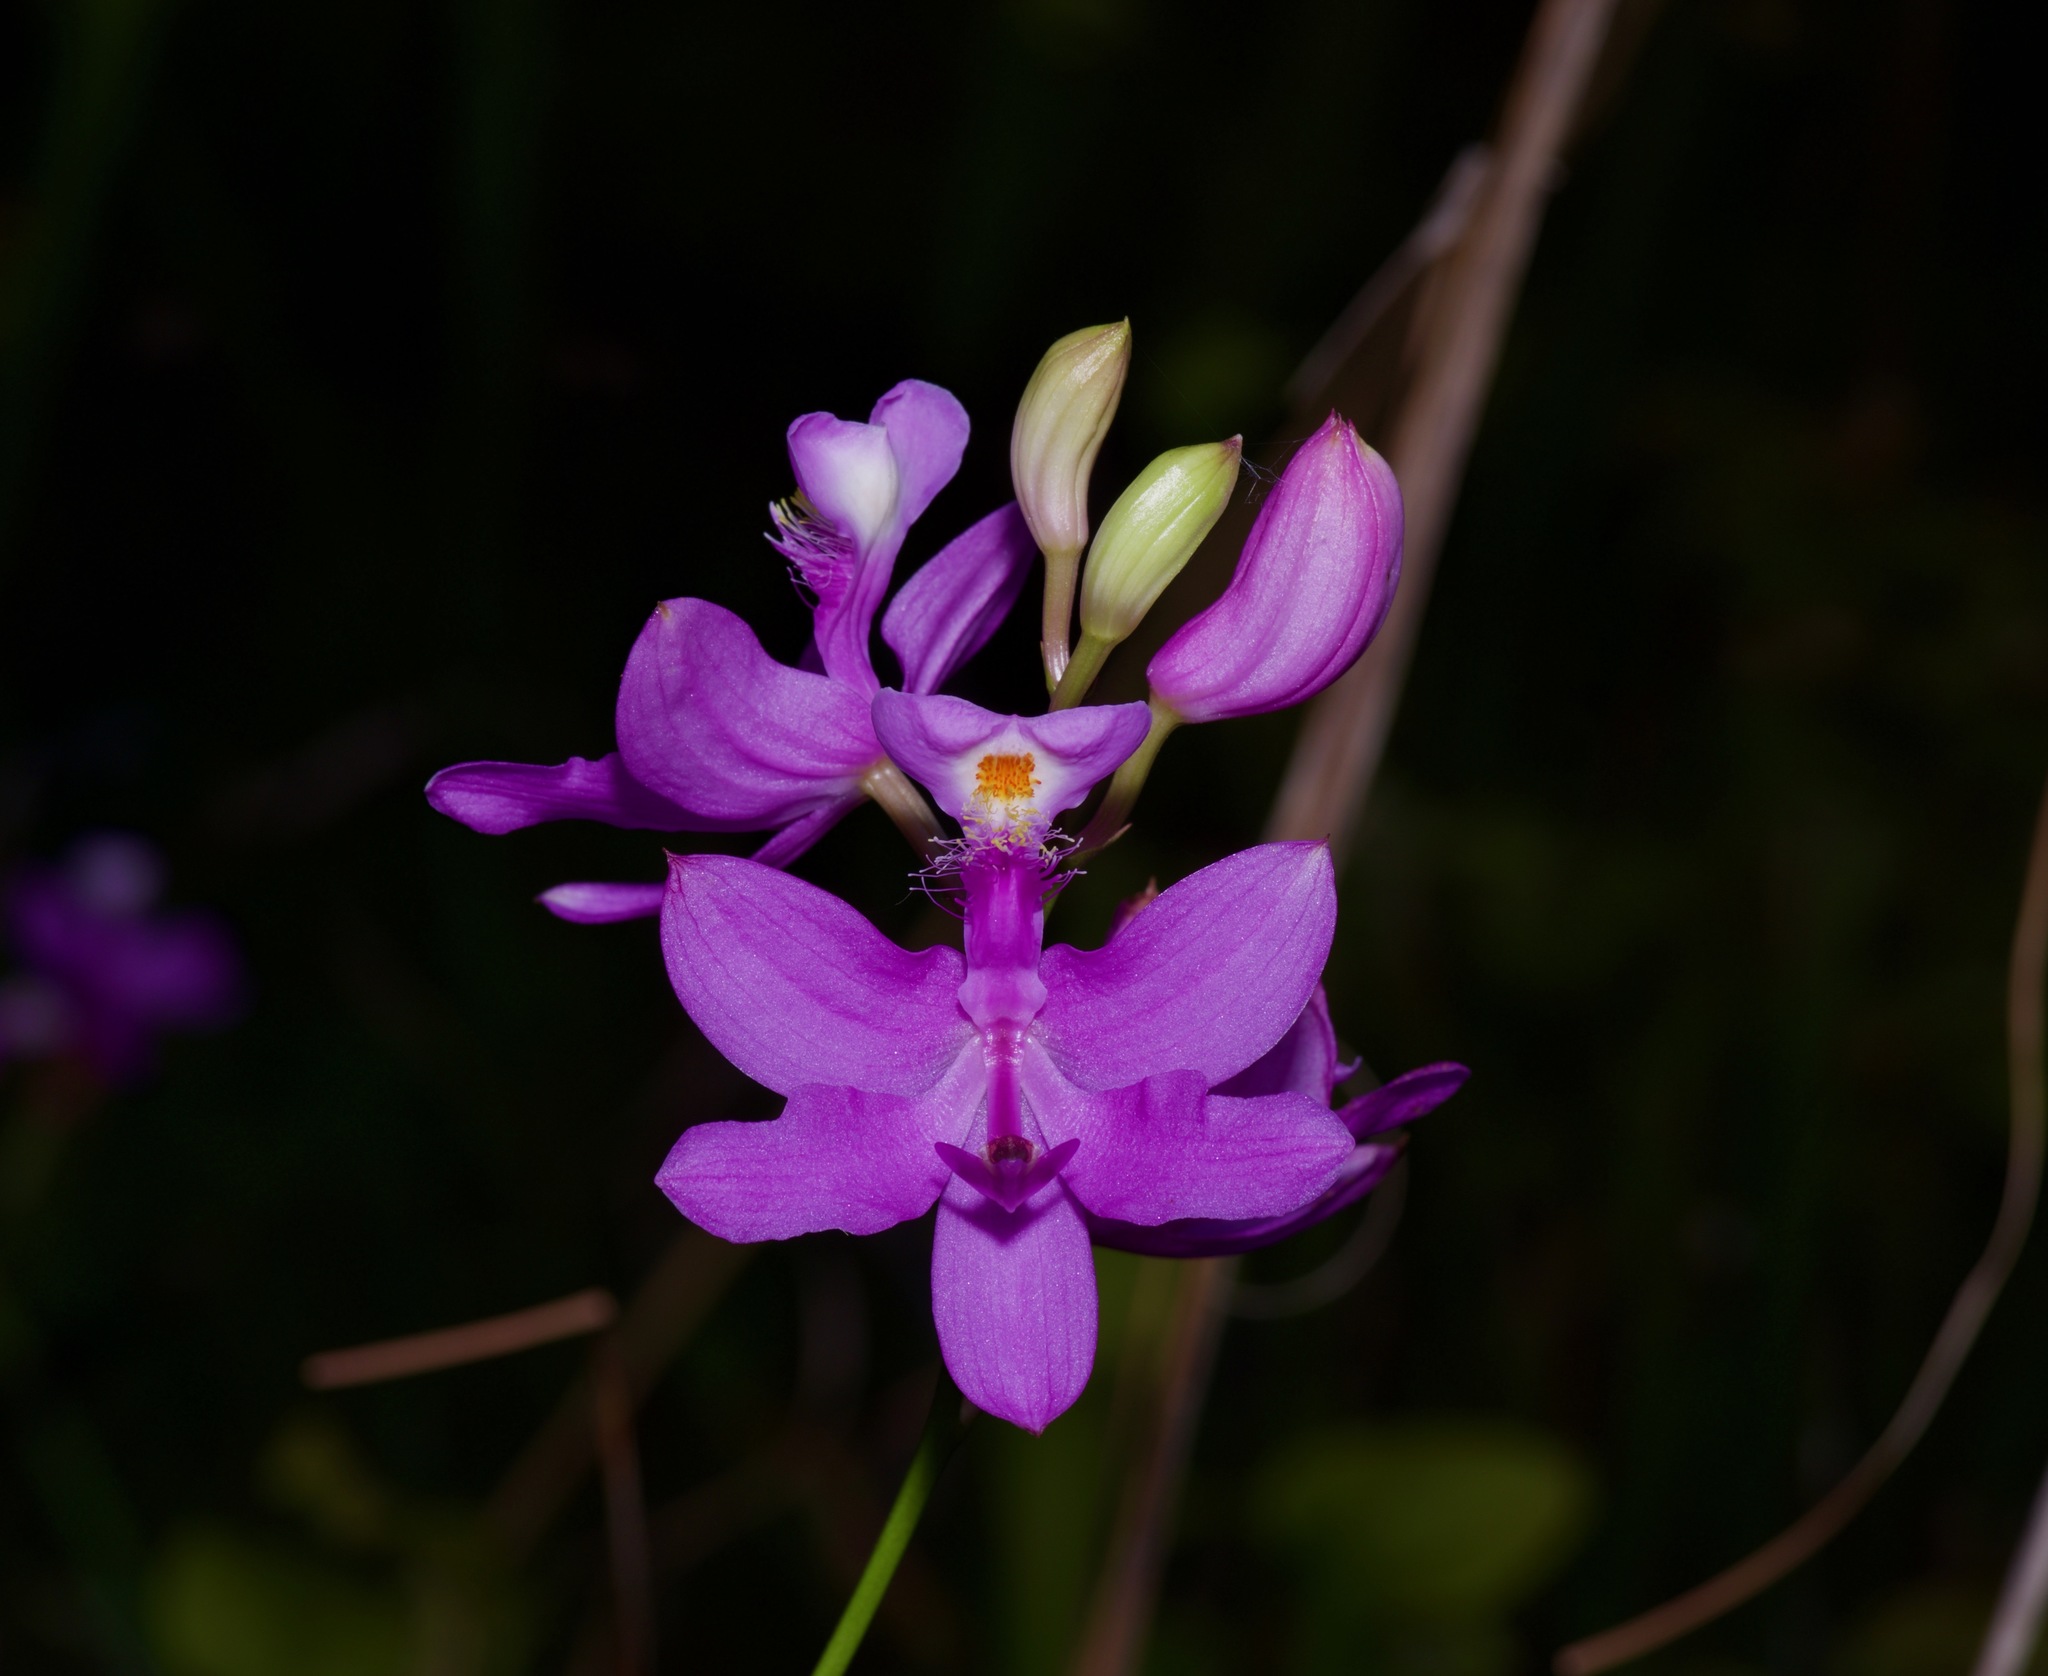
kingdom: Plantae
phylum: Tracheophyta
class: Liliopsida
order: Asparagales
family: Orchidaceae
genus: Calopogon
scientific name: Calopogon tuberosus
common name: Grass-pink
